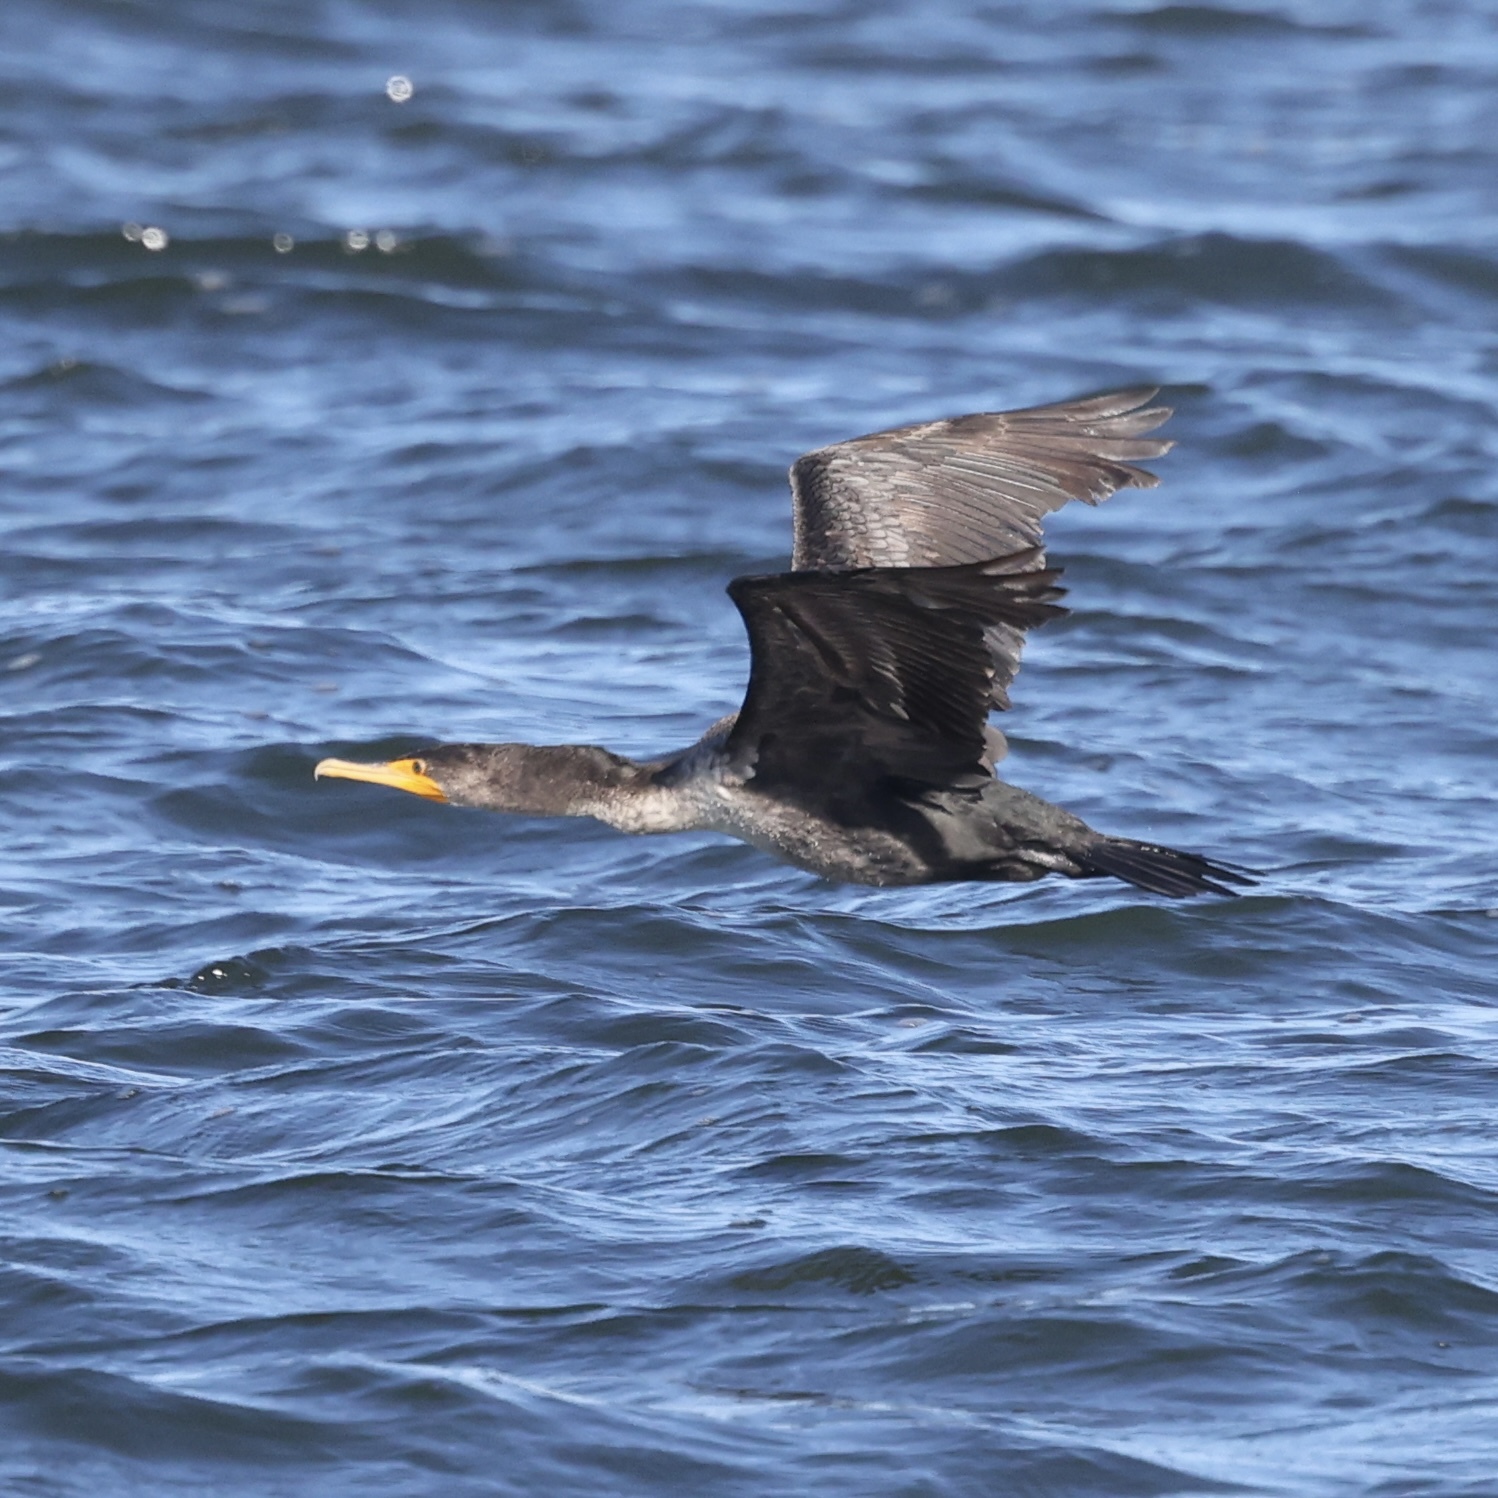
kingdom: Animalia
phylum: Chordata
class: Aves
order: Suliformes
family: Phalacrocoracidae
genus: Phalacrocorax
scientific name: Phalacrocorax auritus
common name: Double-crested cormorant
